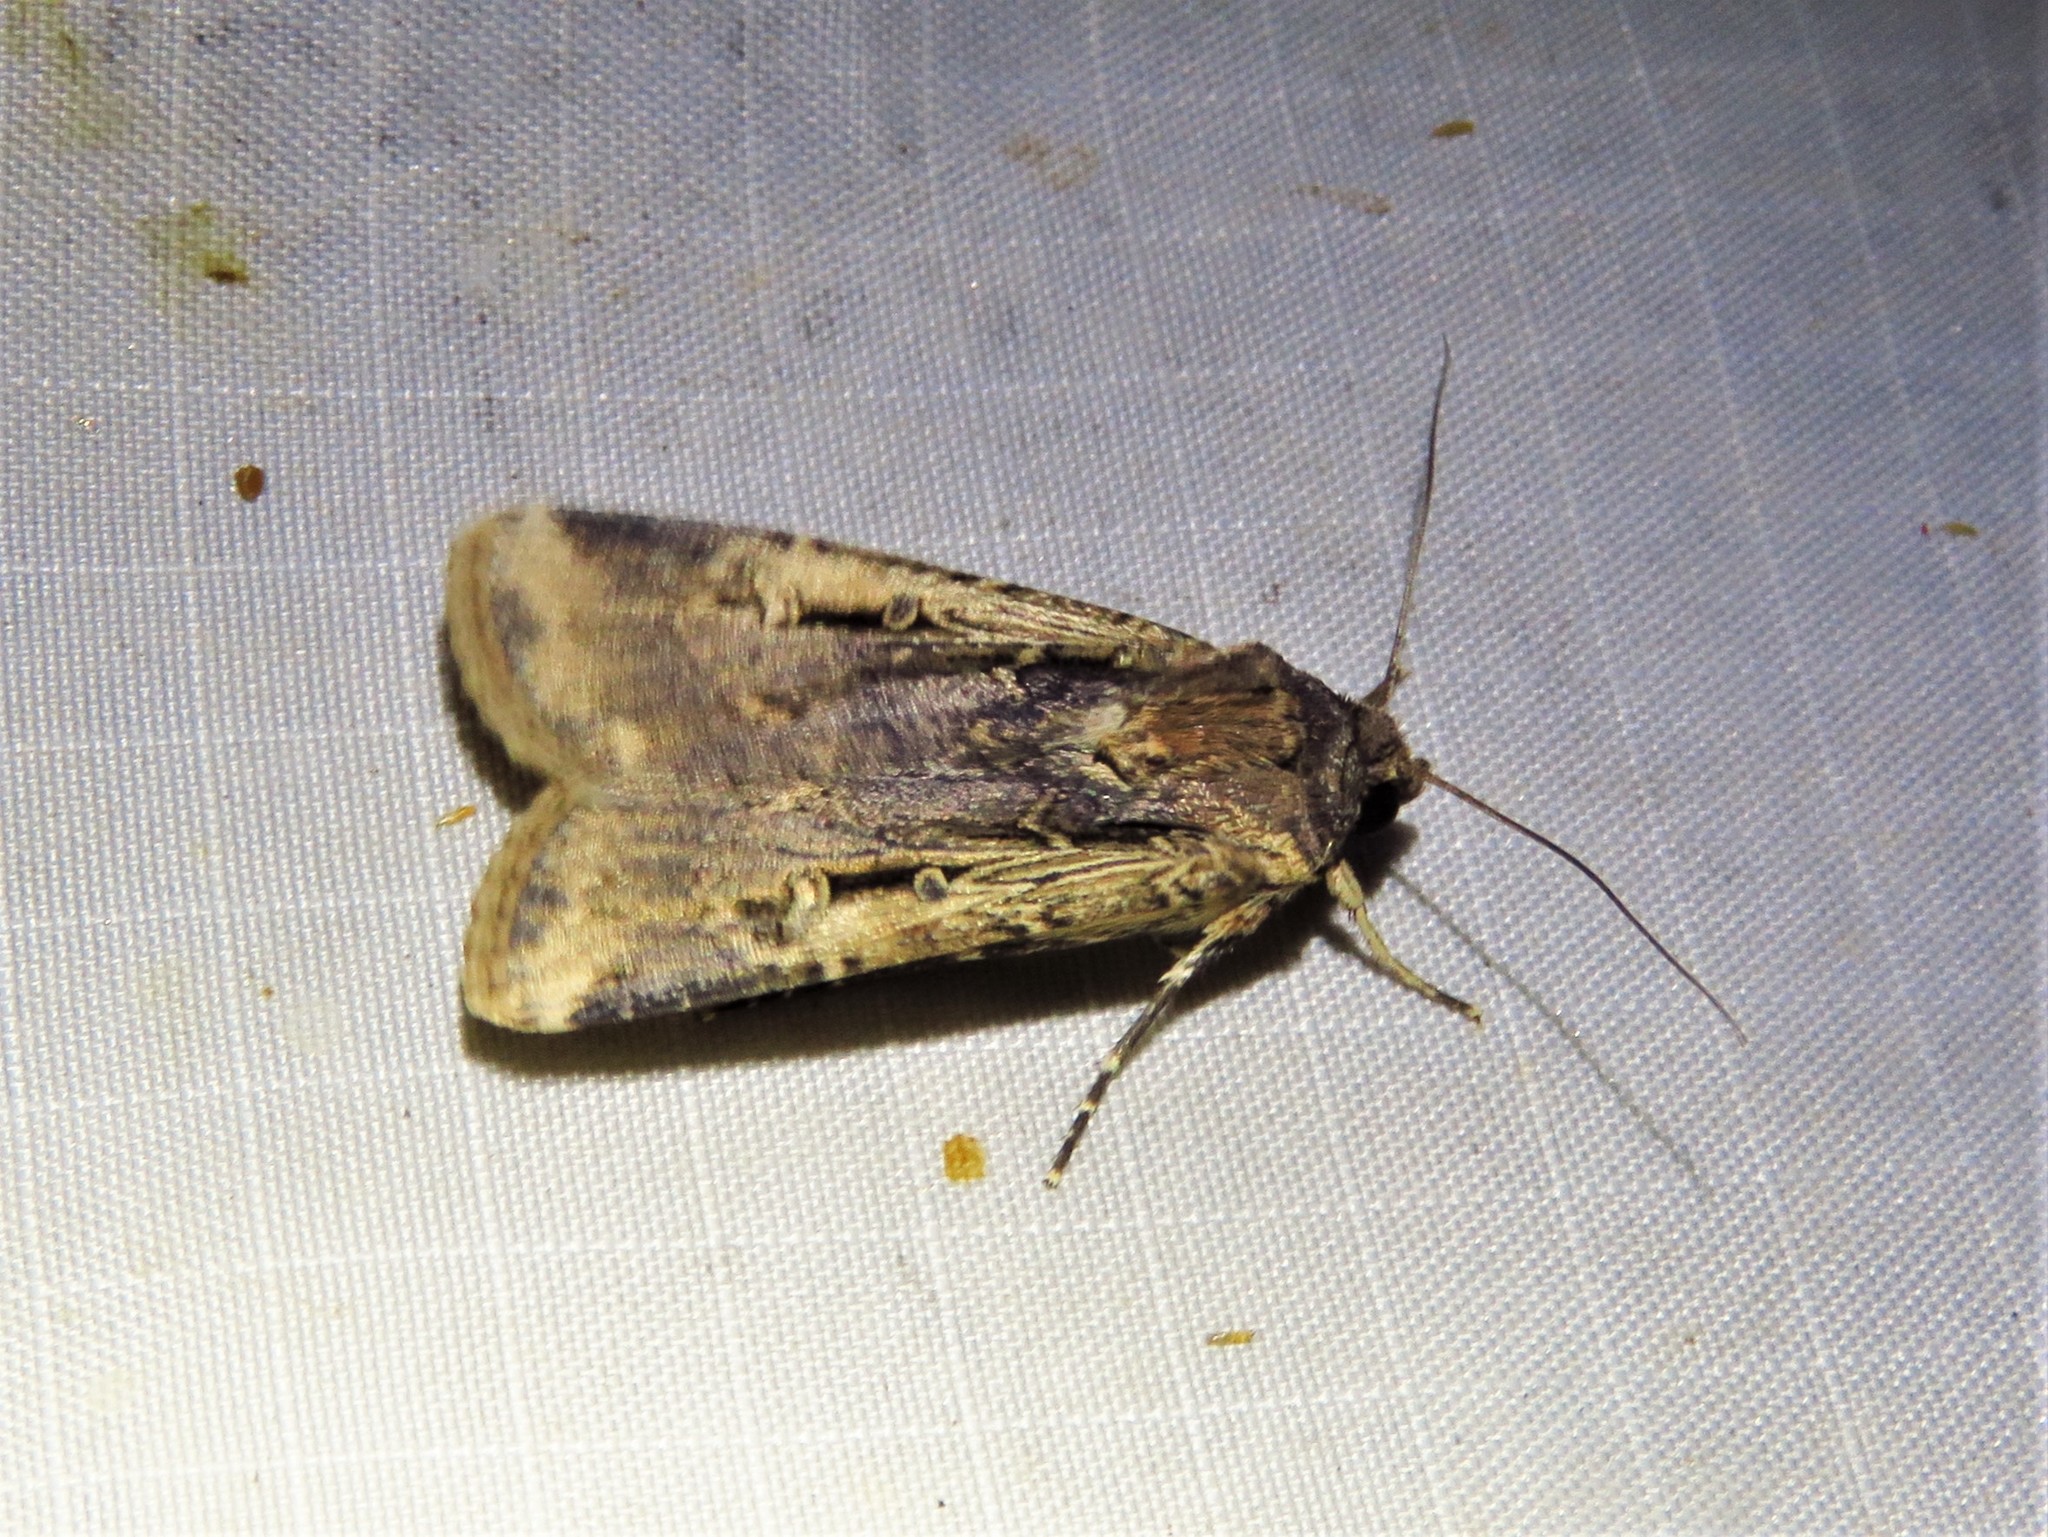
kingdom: Animalia
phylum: Arthropoda
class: Insecta
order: Lepidoptera
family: Noctuidae
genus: Feltia
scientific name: Feltia subterranea
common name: Granulate cutworm
